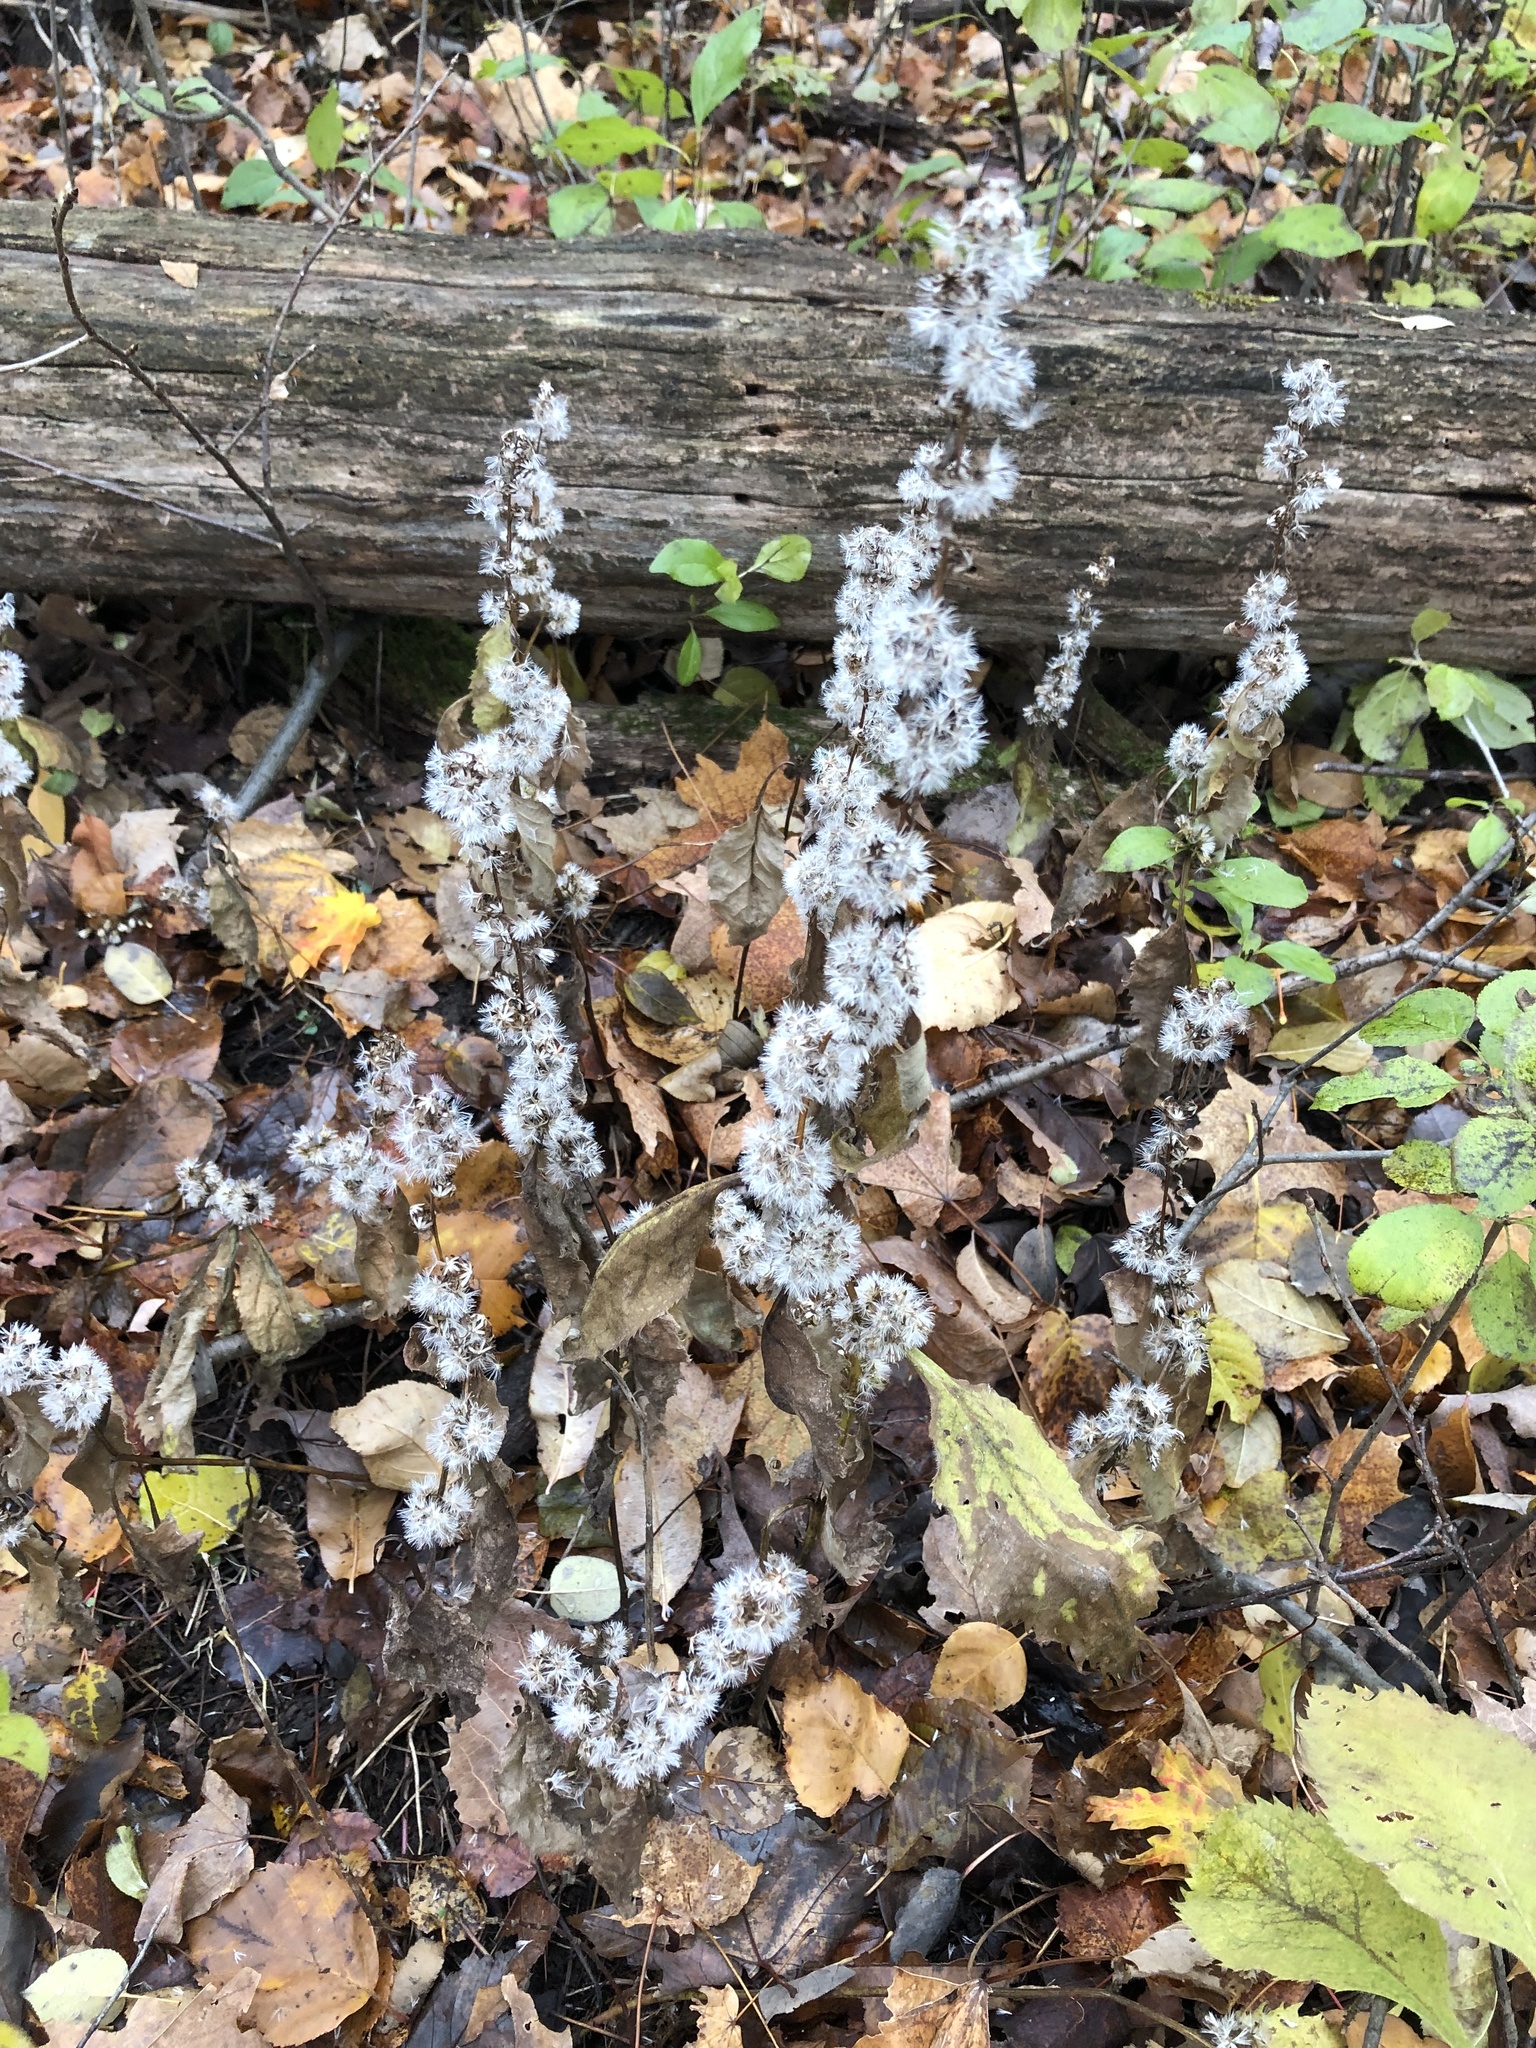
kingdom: Plantae
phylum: Tracheophyta
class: Magnoliopsida
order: Asterales
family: Asteraceae
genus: Solidago
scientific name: Solidago flexicaulis
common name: Zig-zag goldenrod
